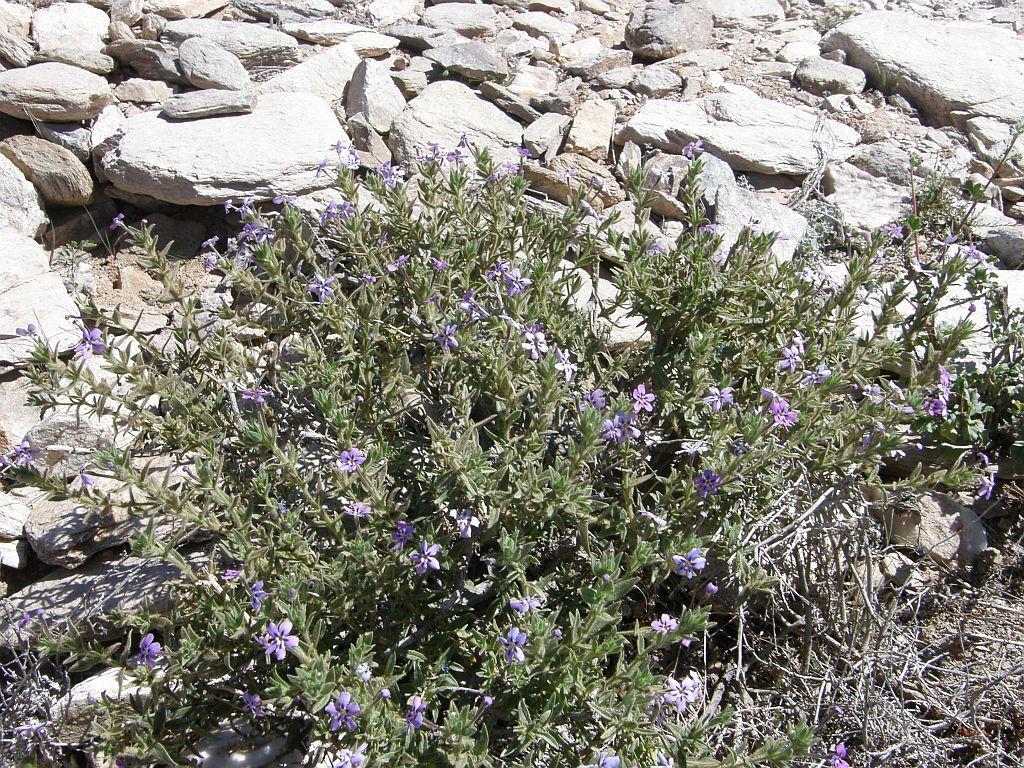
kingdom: Plantae
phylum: Tracheophyta
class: Magnoliopsida
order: Lamiales
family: Scrophulariaceae
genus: Jamesbrittenia
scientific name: Jamesbrittenia fruticosa
